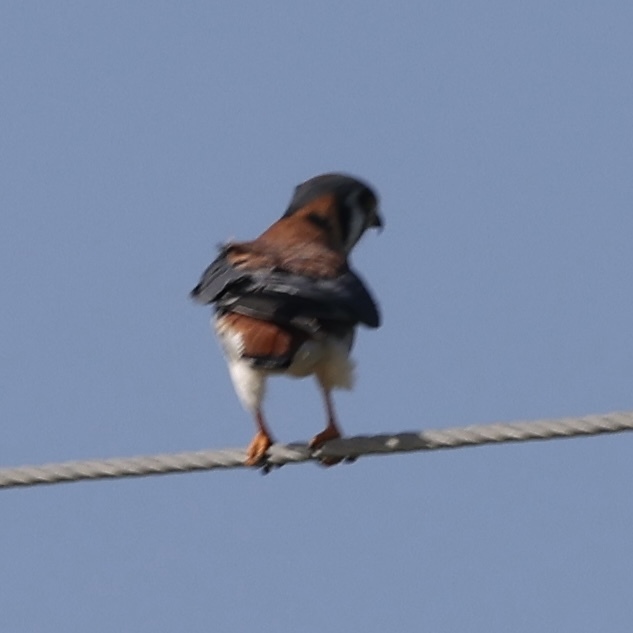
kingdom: Animalia
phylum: Chordata
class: Aves
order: Falconiformes
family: Falconidae
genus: Falco
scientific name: Falco sparverius
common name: American kestrel
